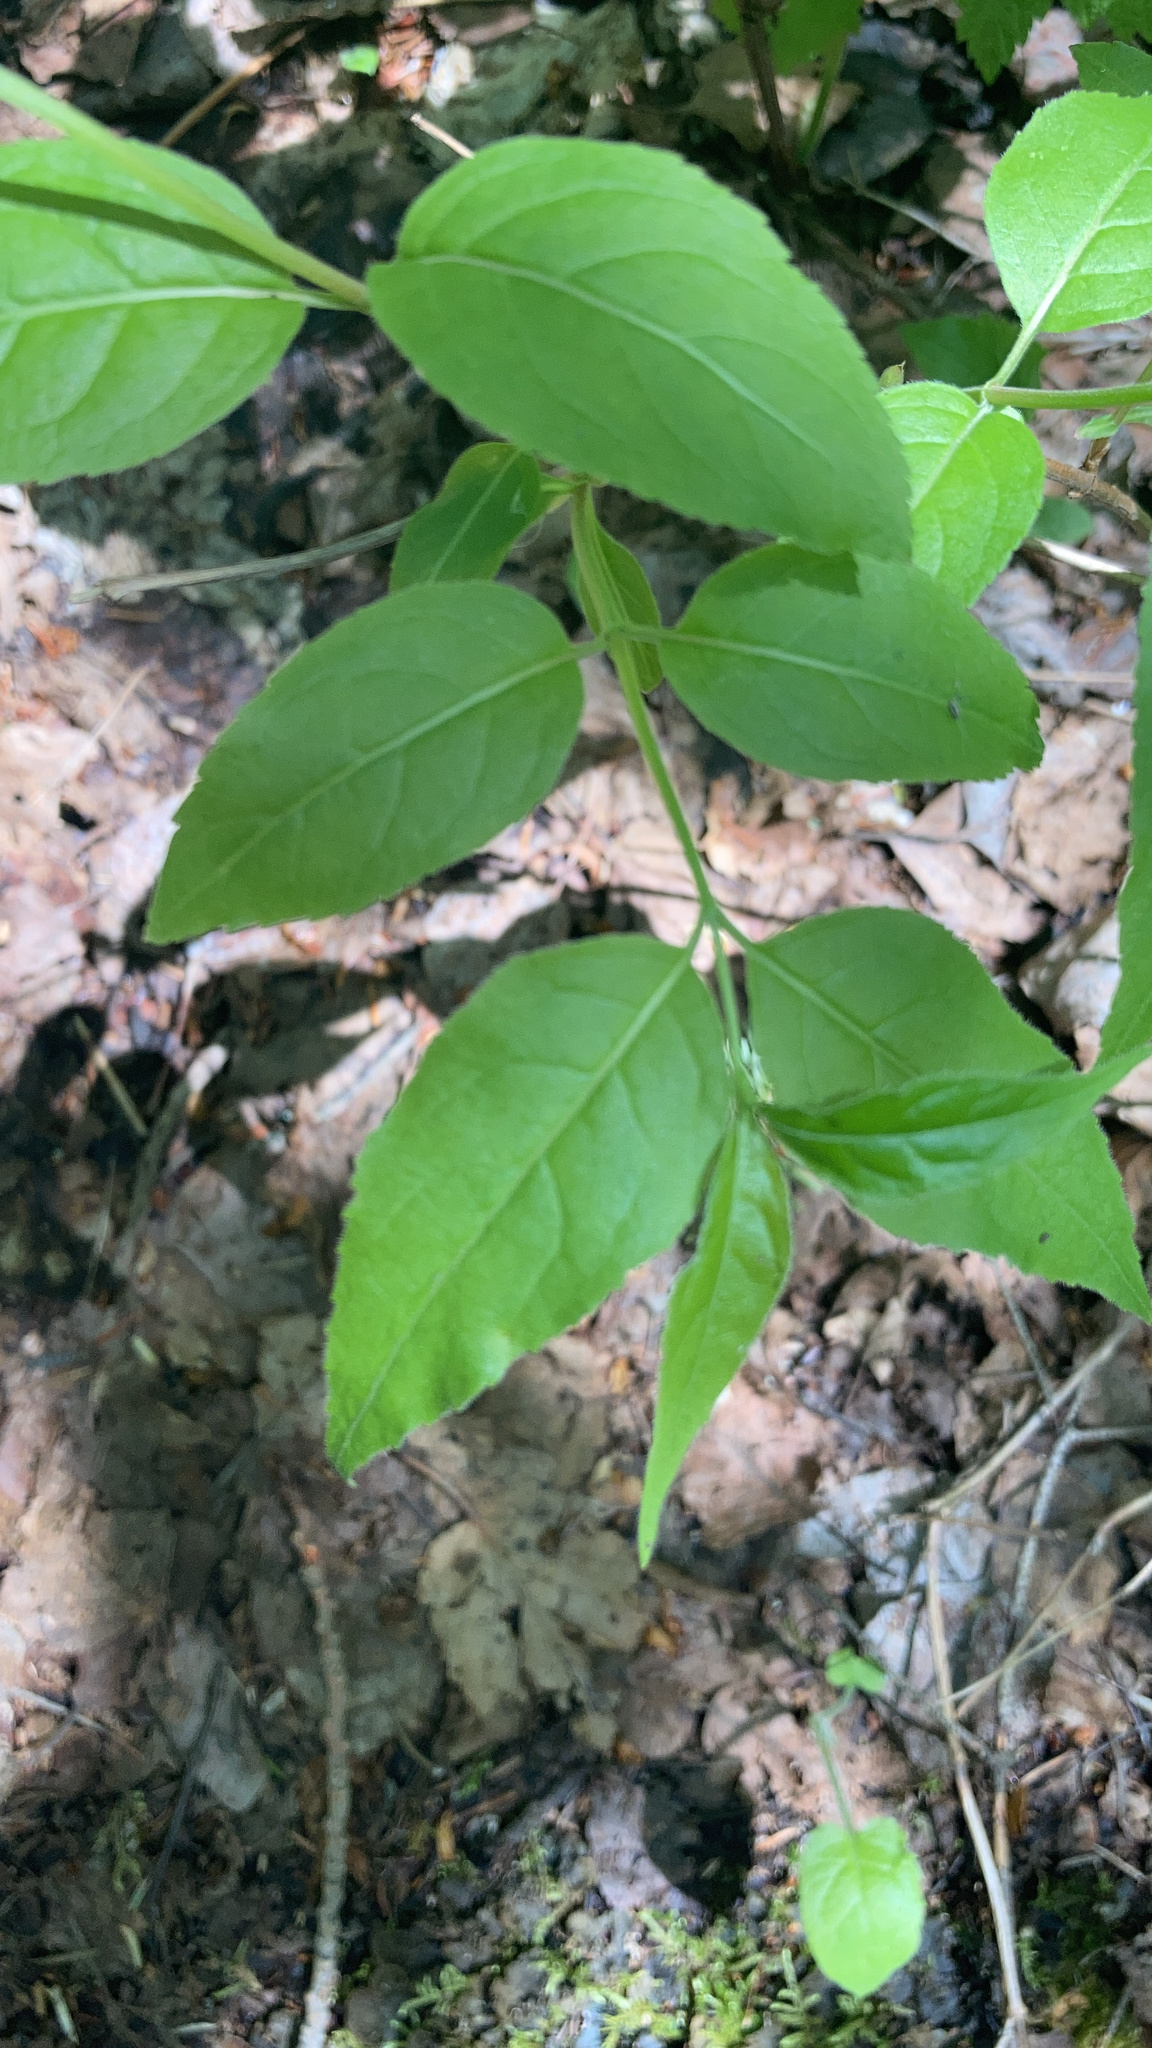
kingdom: Plantae
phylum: Tracheophyta
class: Magnoliopsida
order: Dipsacales
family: Caprifoliaceae
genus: Diervilla
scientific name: Diervilla lonicera
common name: Bush-honeysuckle
